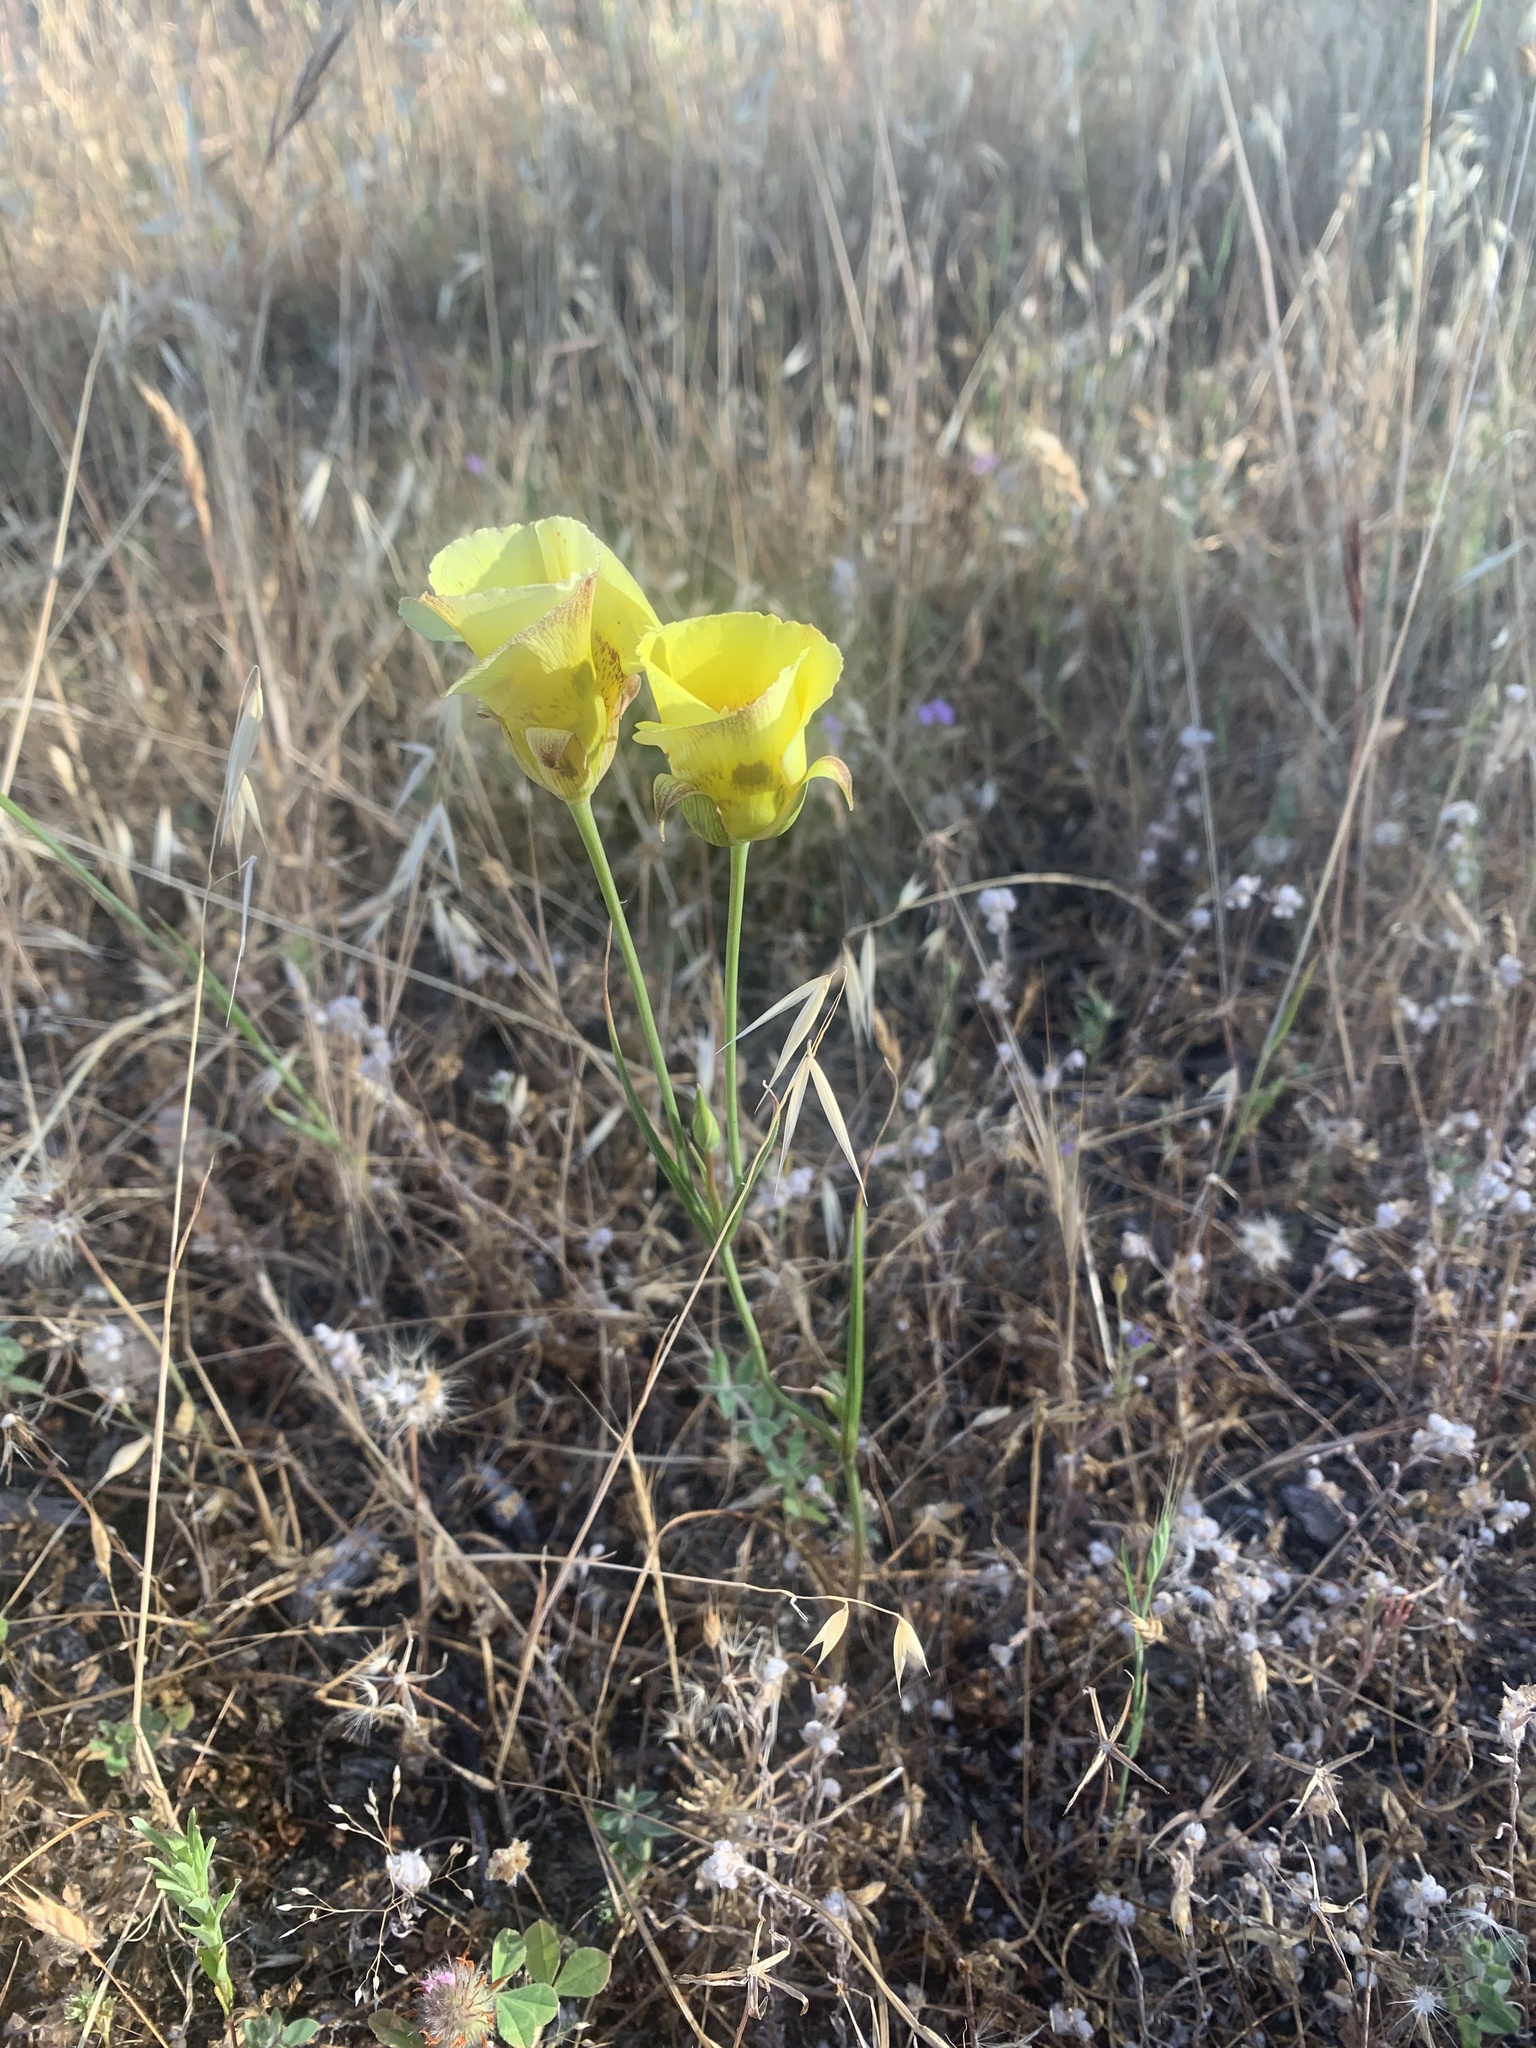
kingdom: Plantae
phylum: Tracheophyta
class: Liliopsida
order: Liliales
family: Liliaceae
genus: Calochortus
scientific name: Calochortus luteus
